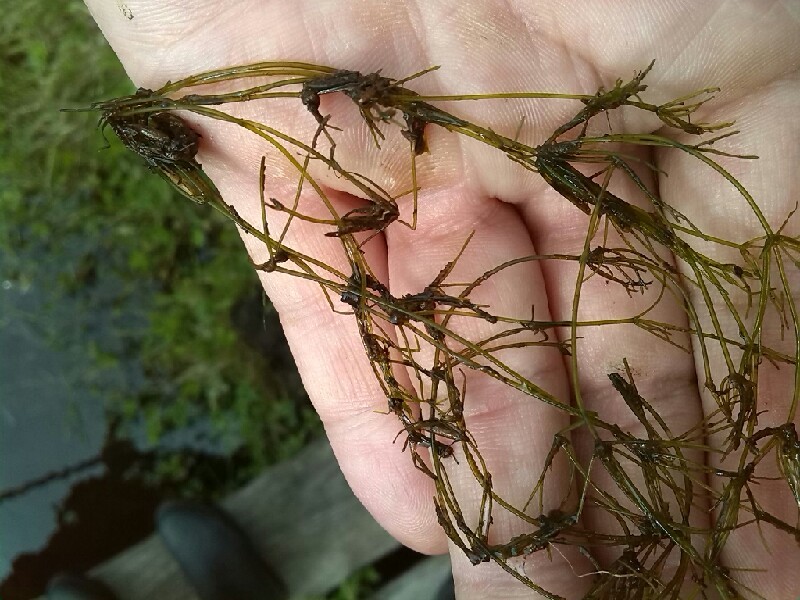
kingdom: Plantae
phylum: Charophyta
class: Charophyceae
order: Charales
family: Characeae
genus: Nitella
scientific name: Nitella
